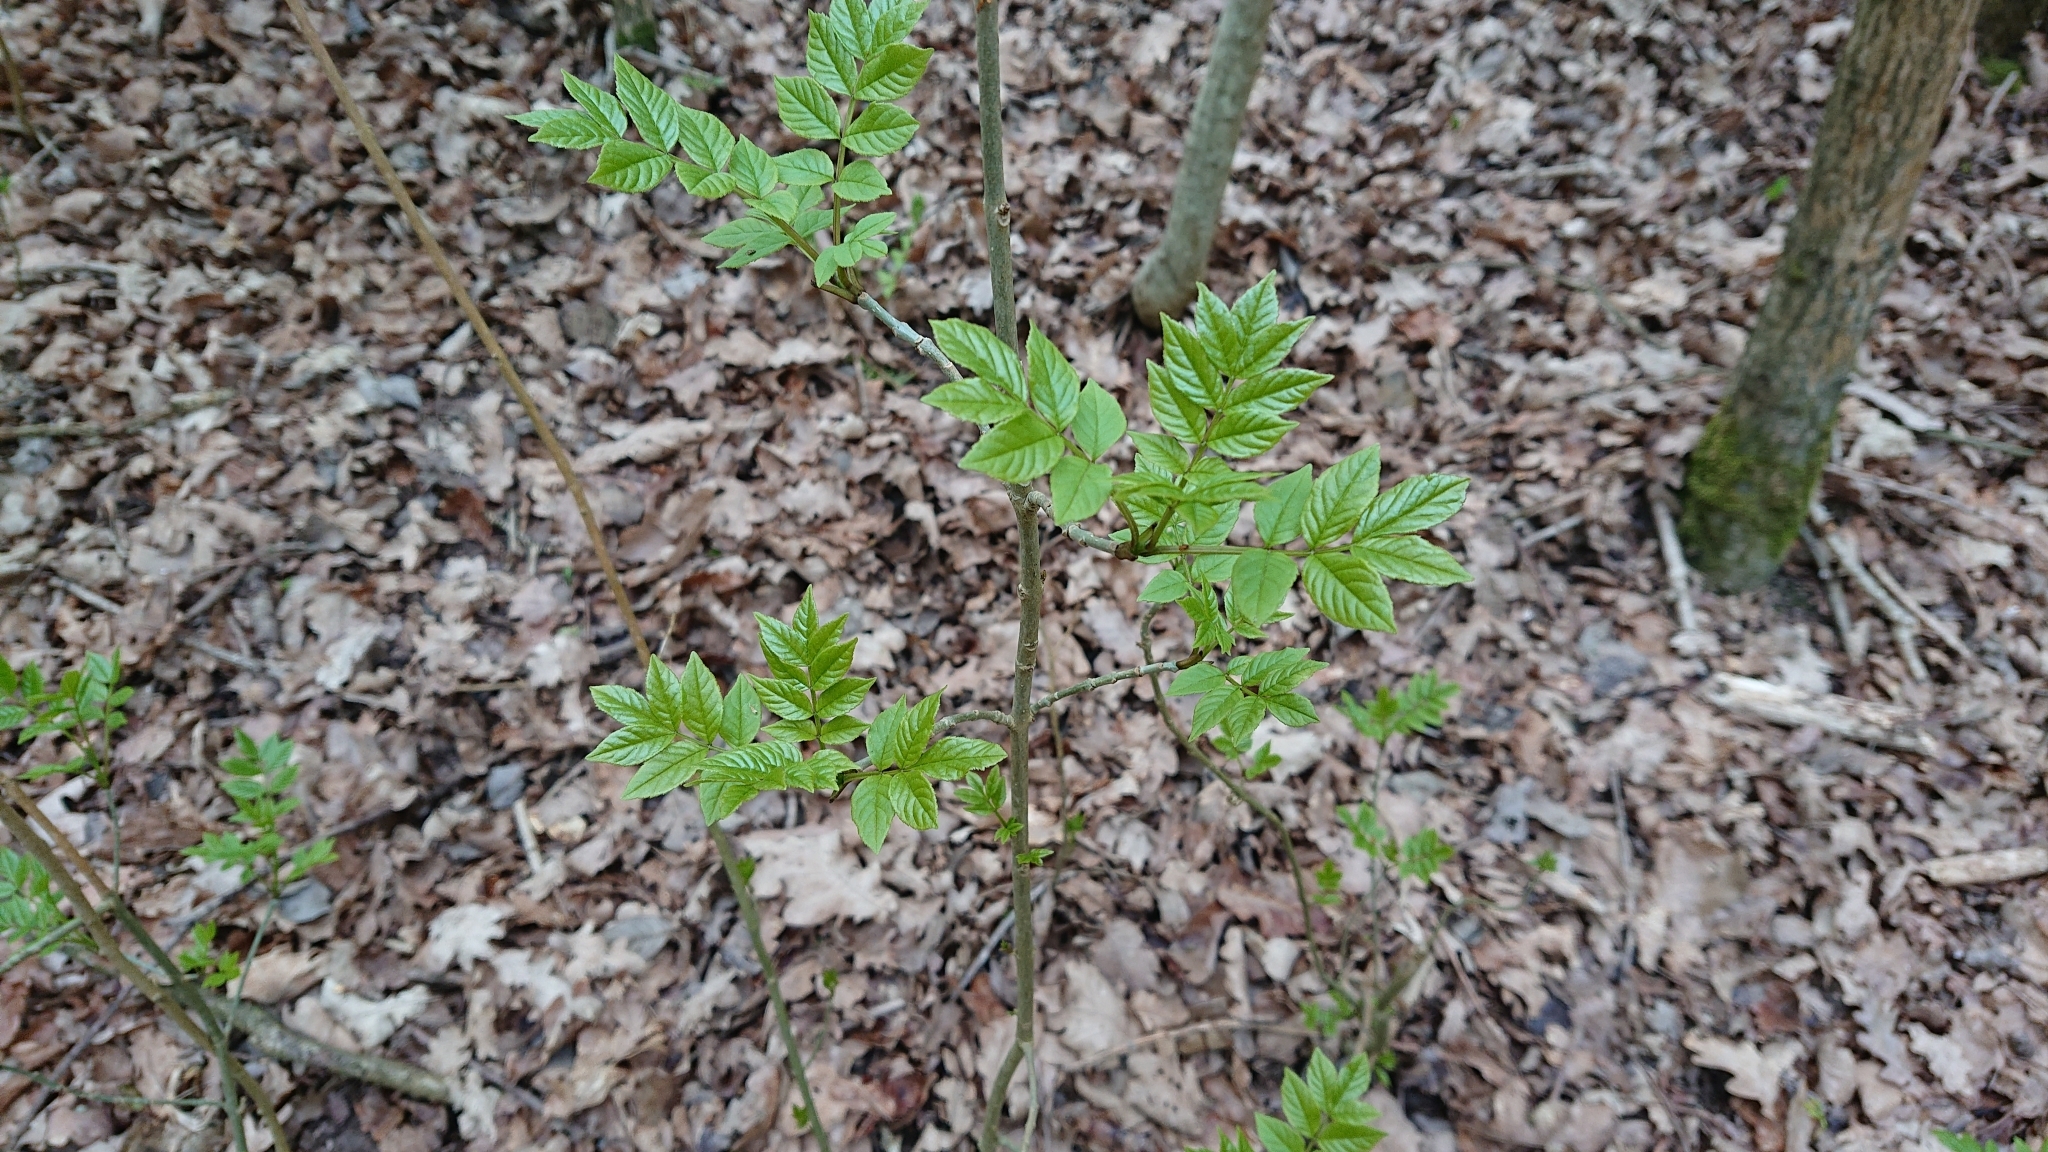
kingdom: Plantae
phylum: Tracheophyta
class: Magnoliopsida
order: Lamiales
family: Oleaceae
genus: Fraxinus
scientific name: Fraxinus excelsior
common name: European ash
